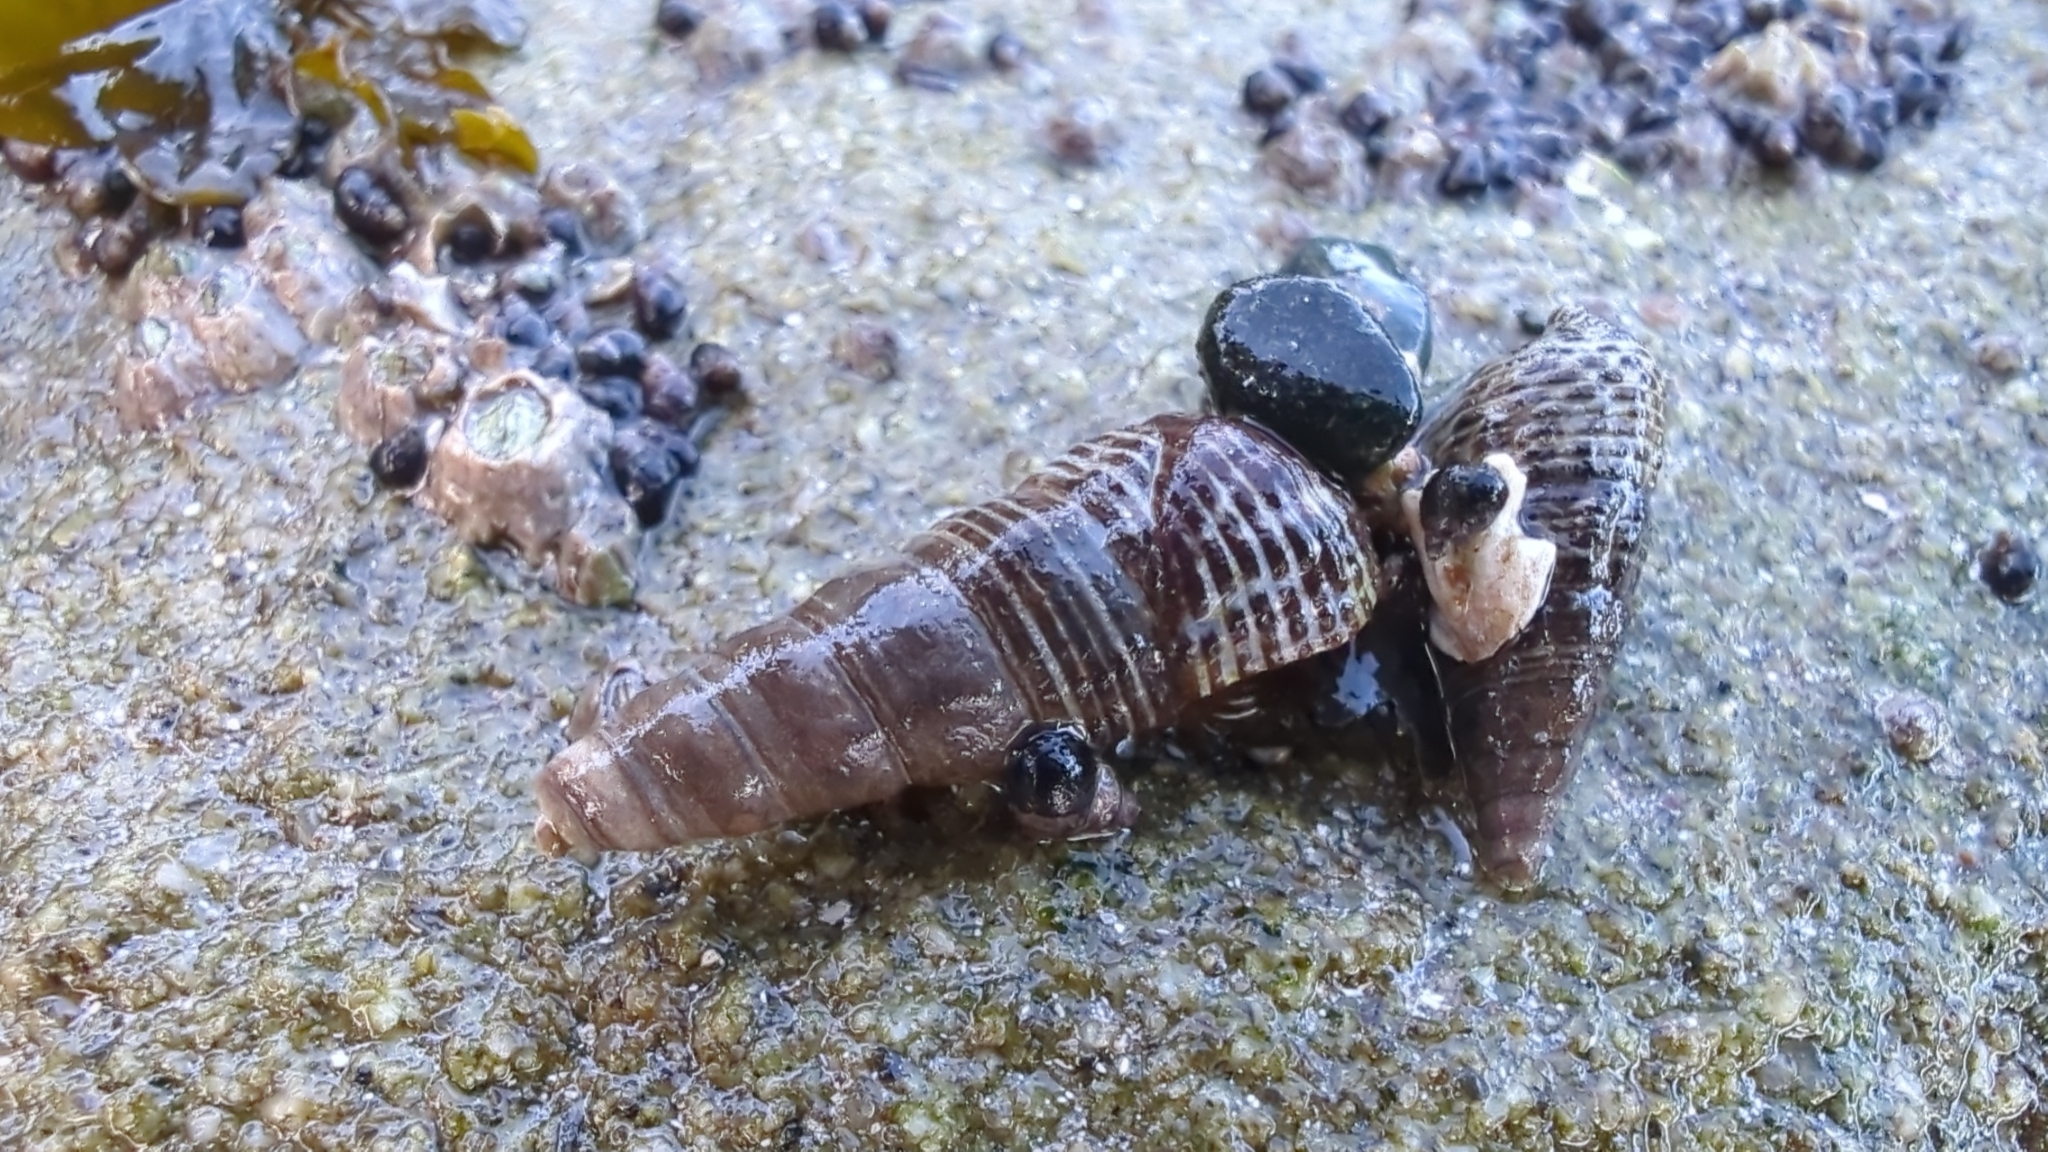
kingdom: Animalia
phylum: Mollusca
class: Gastropoda
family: Batillariidae
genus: Batillaria
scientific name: Batillaria attramentaria
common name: Japanese false cerith
